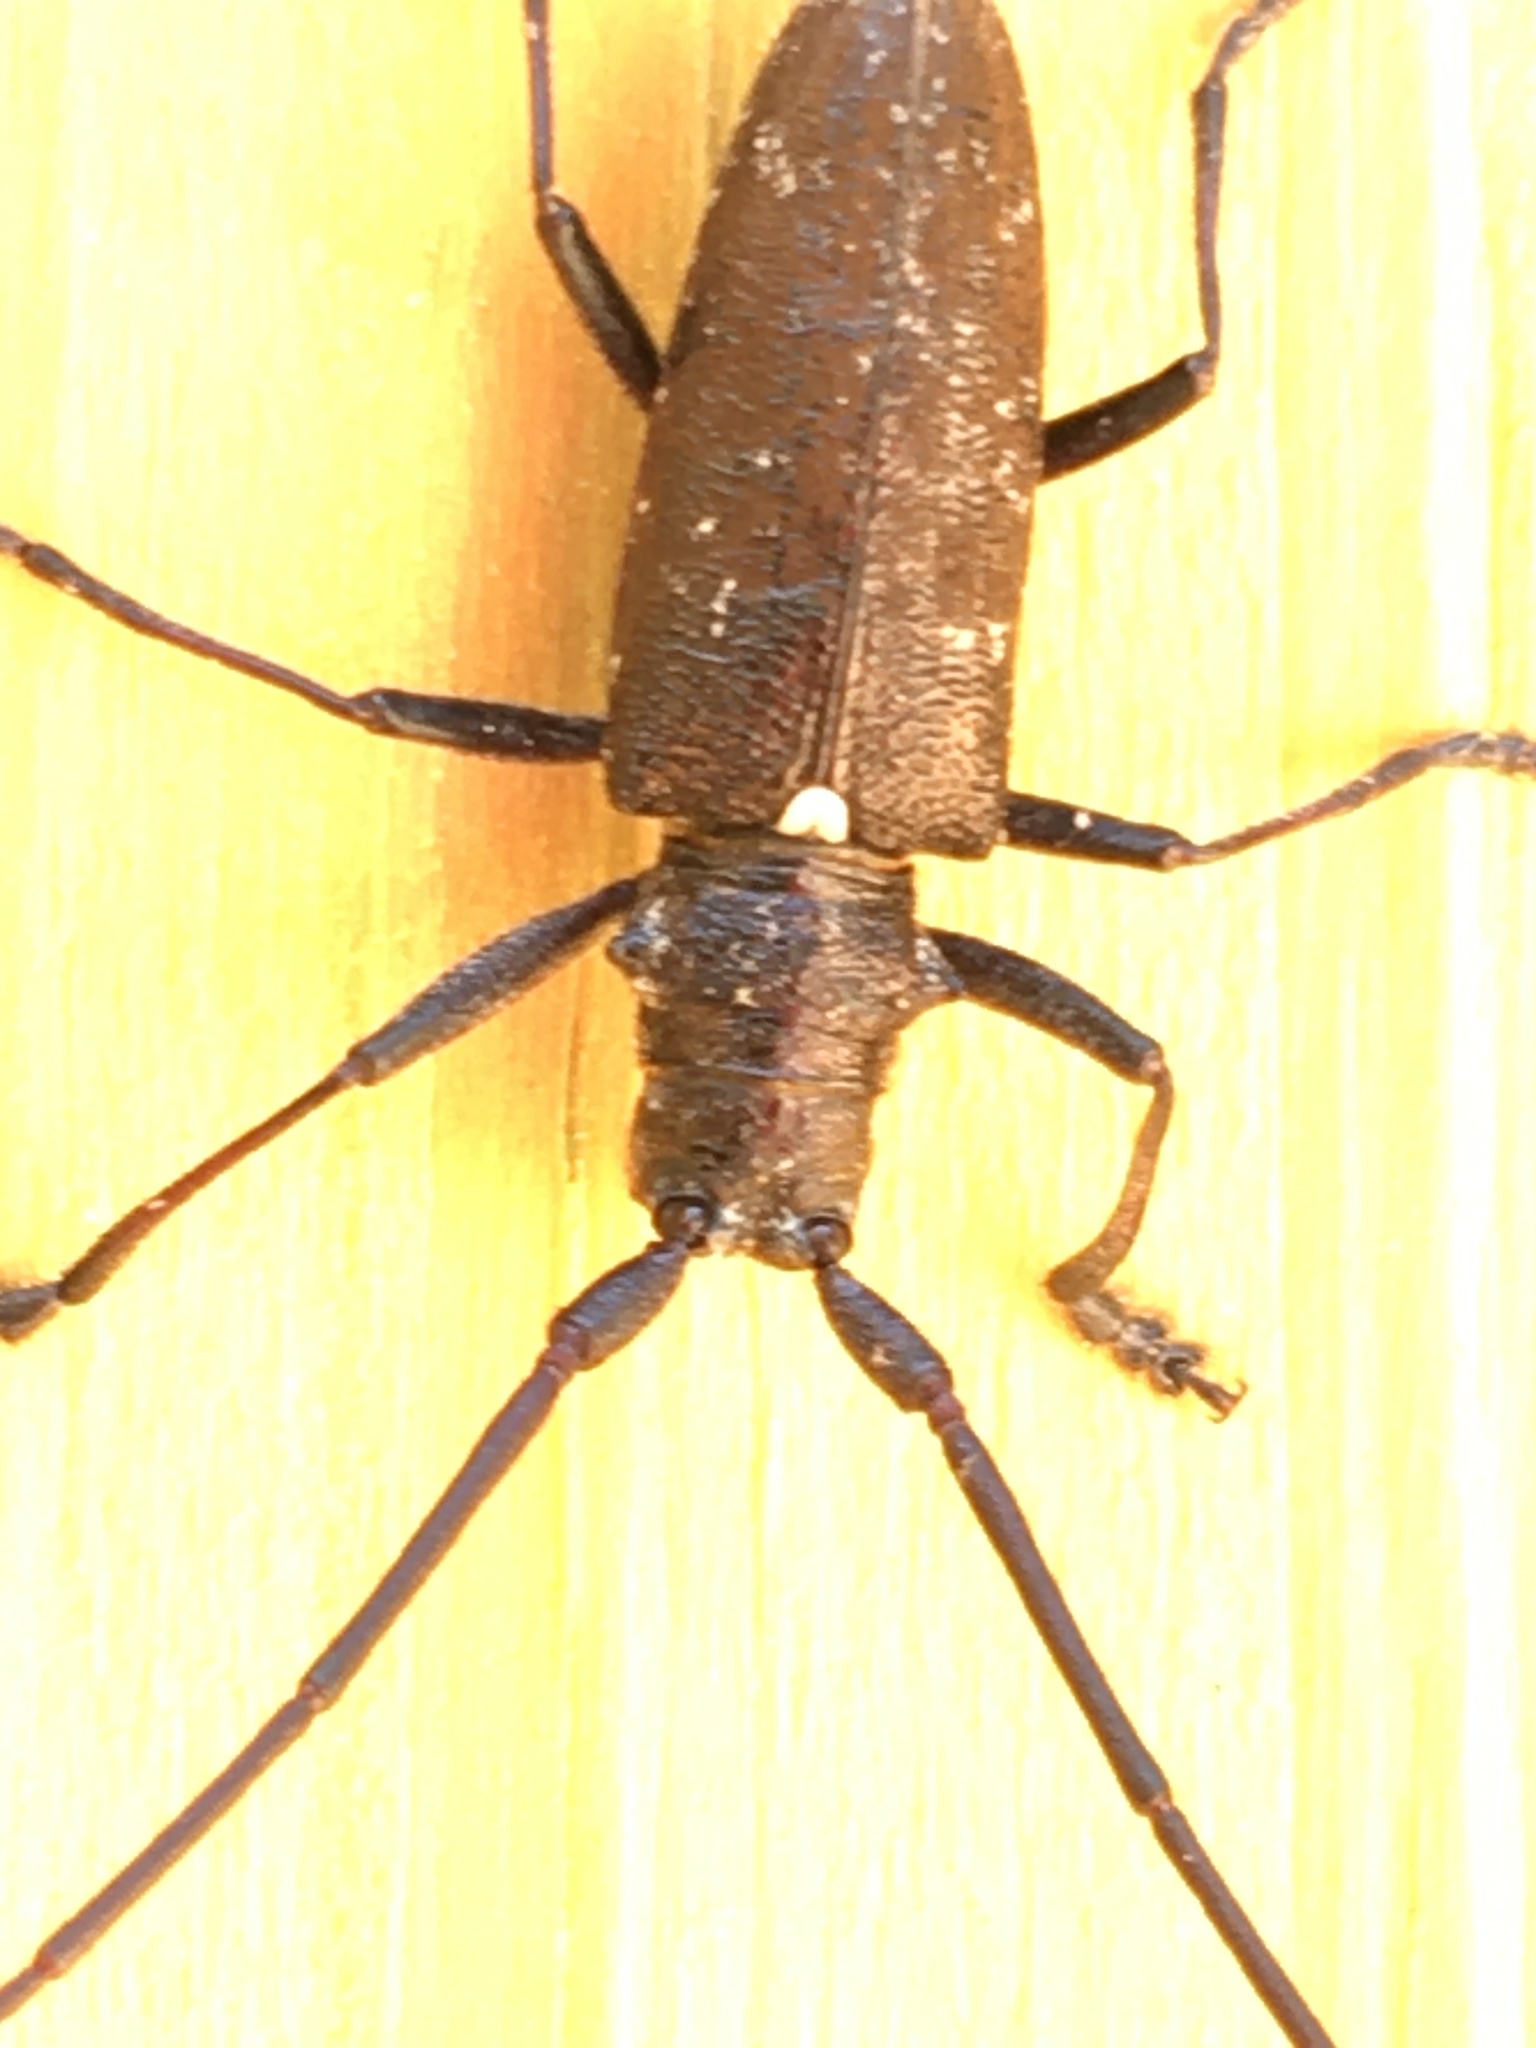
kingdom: Animalia
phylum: Arthropoda
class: Insecta
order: Coleoptera
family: Cerambycidae
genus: Monochamus
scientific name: Monochamus scutellatus
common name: White-spotted sawyer beetle
